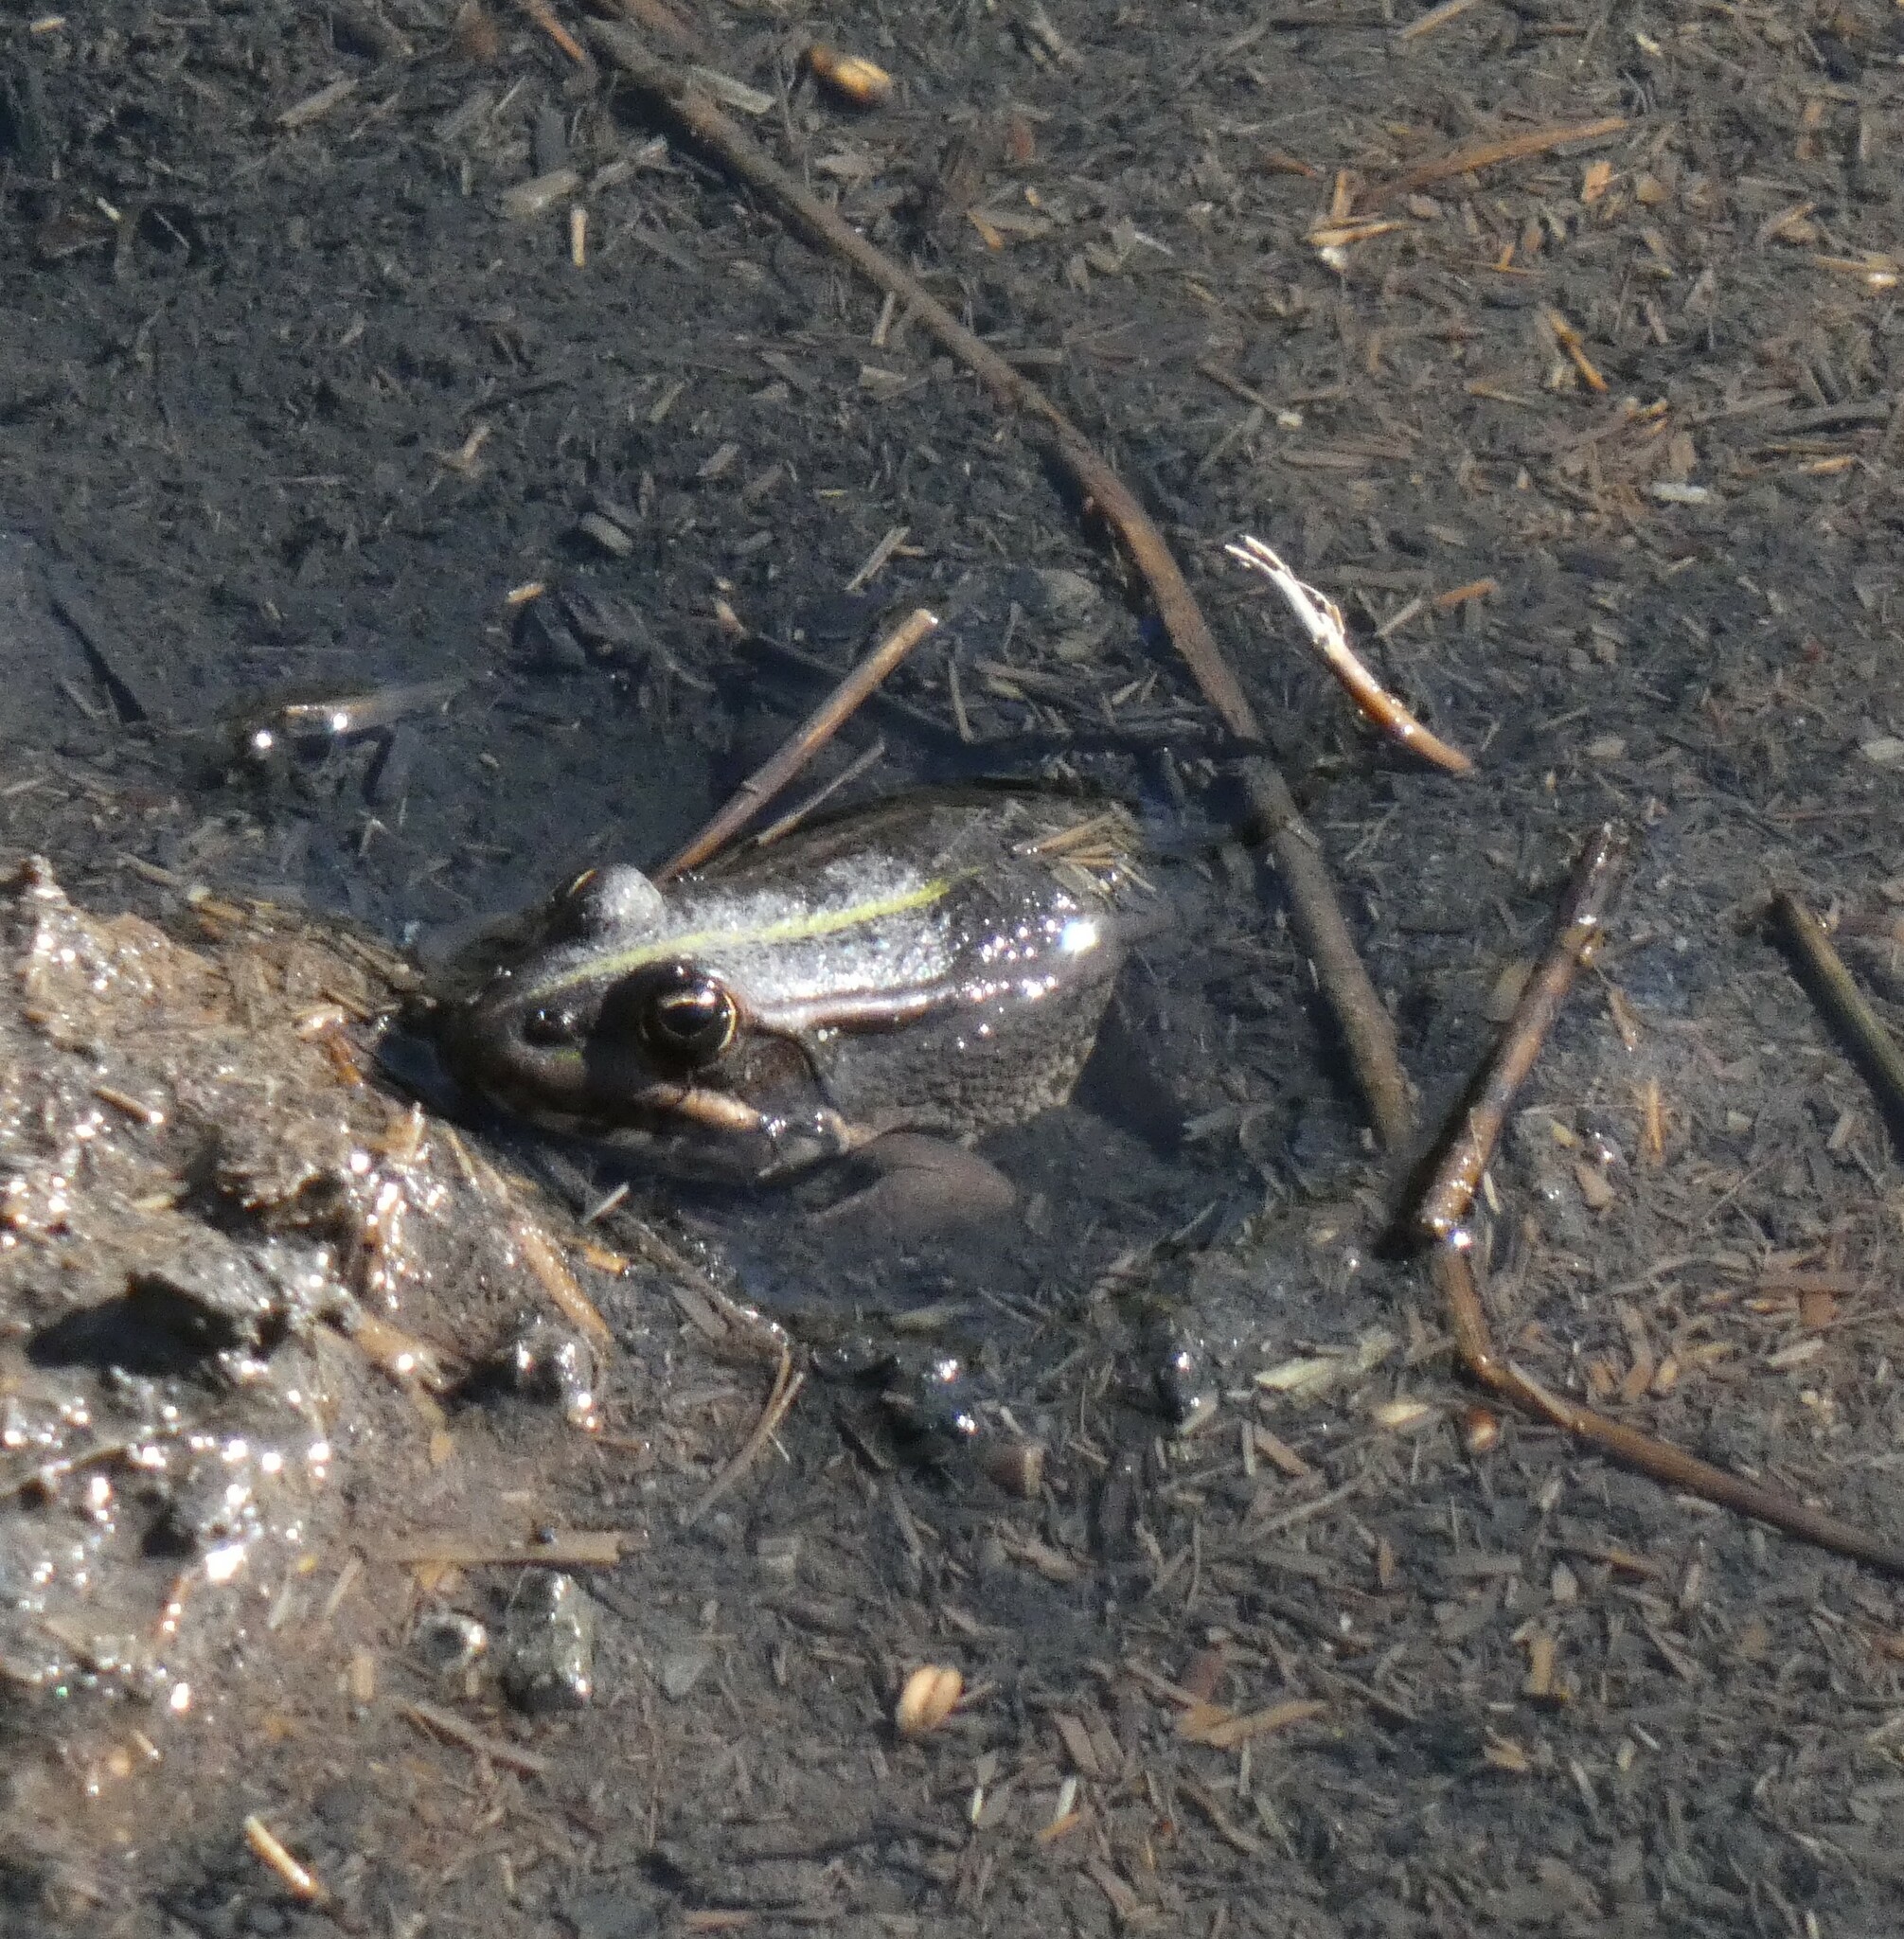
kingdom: Animalia
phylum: Chordata
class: Amphibia
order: Anura
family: Ranidae
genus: Pelophylax
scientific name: Pelophylax perezi
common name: Perez's frog
